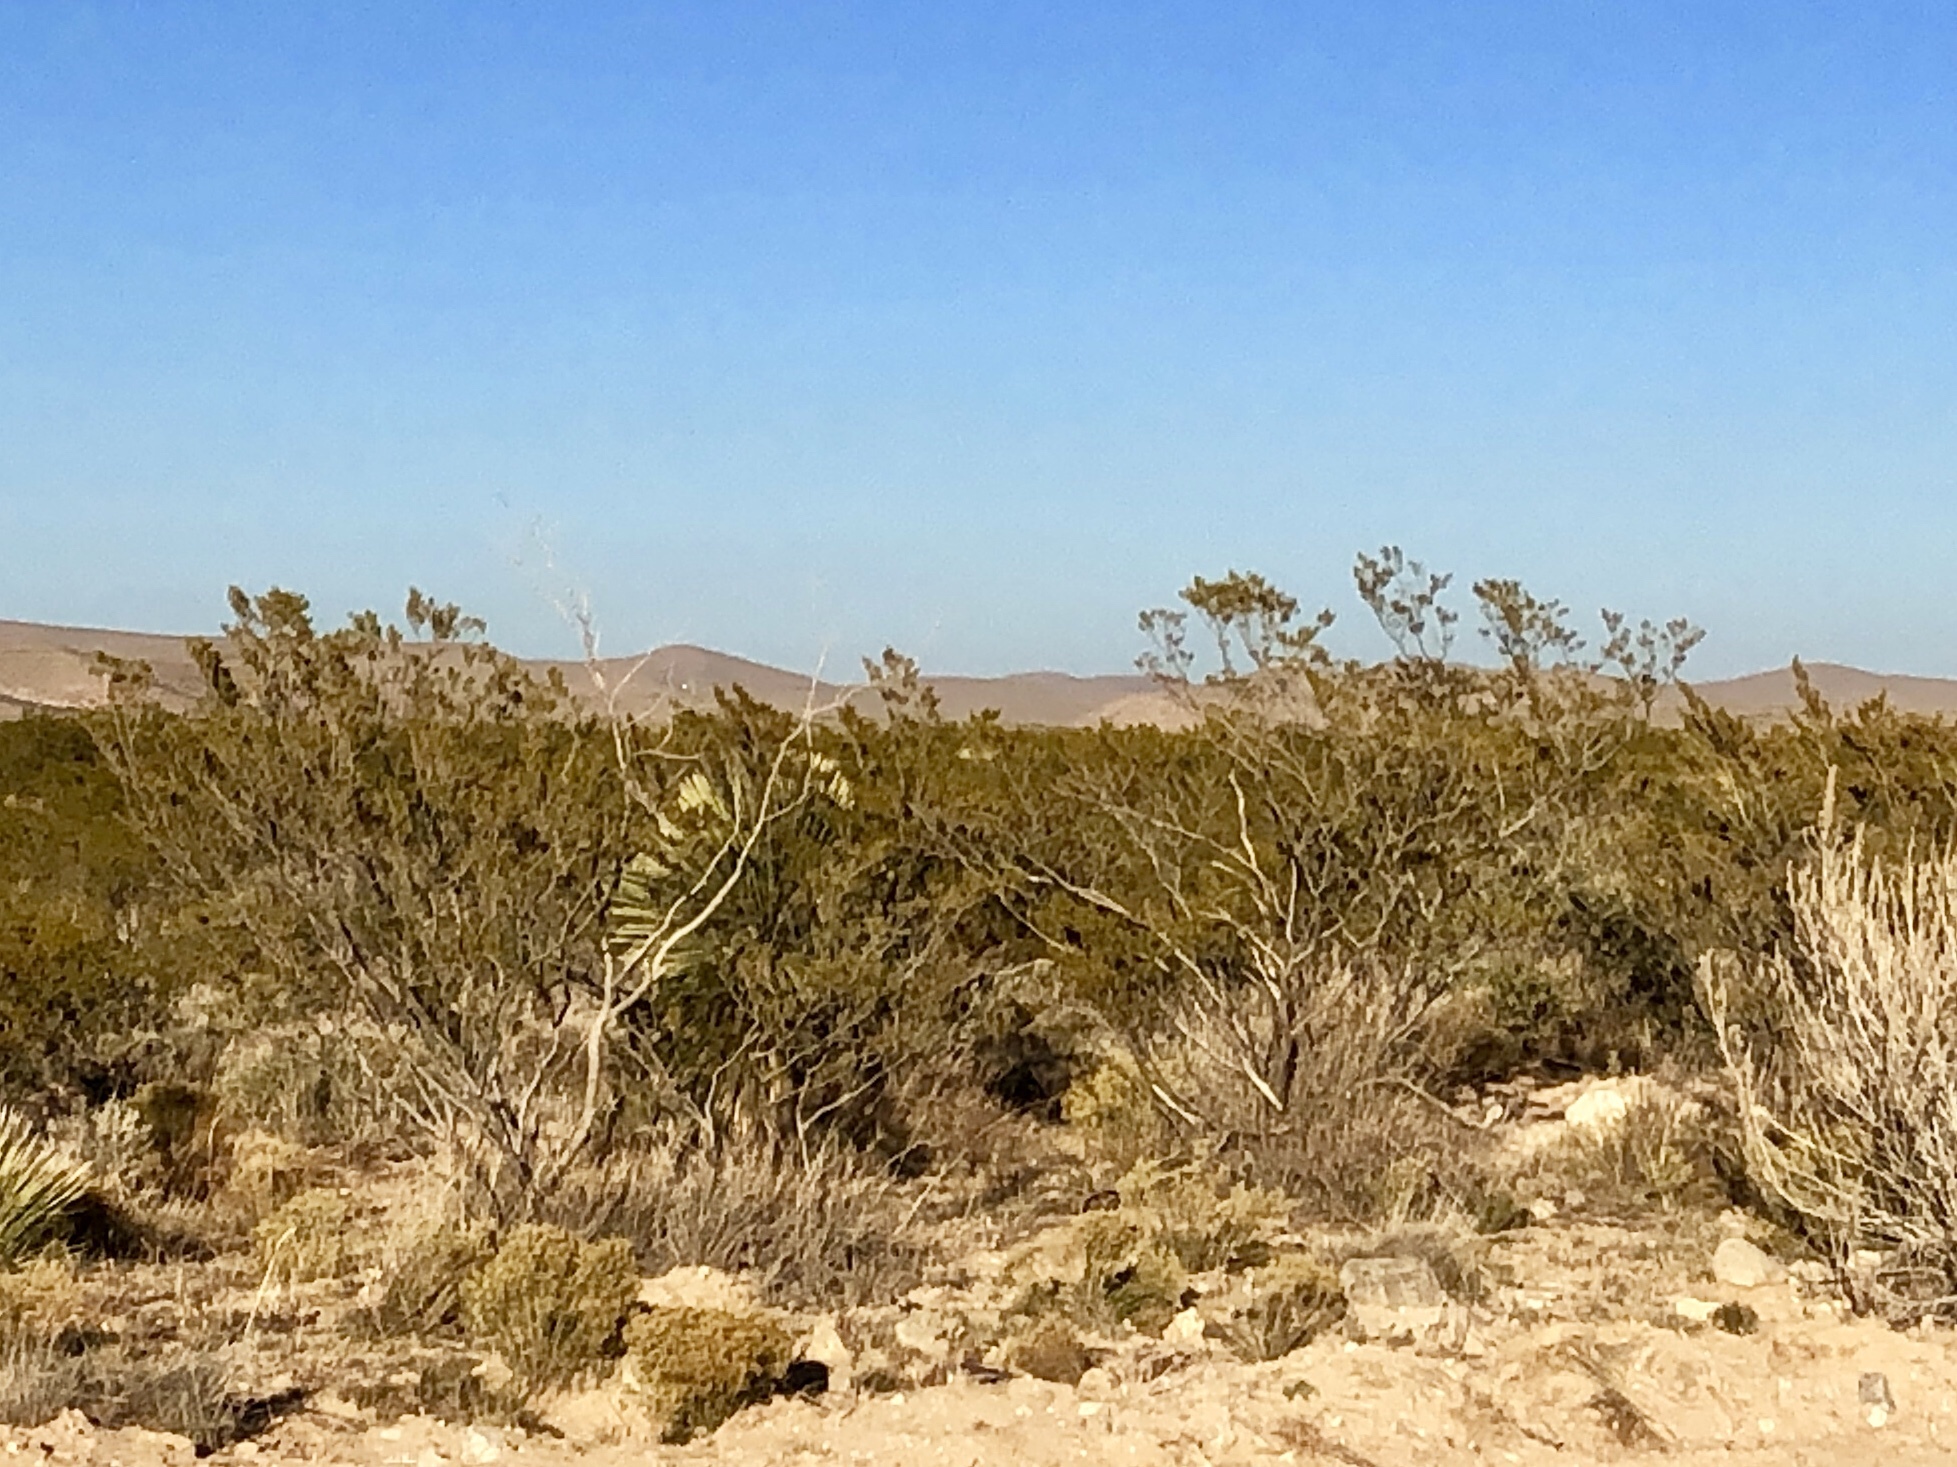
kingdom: Plantae
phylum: Tracheophyta
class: Magnoliopsida
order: Zygophyllales
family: Zygophyllaceae
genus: Larrea
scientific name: Larrea tridentata
